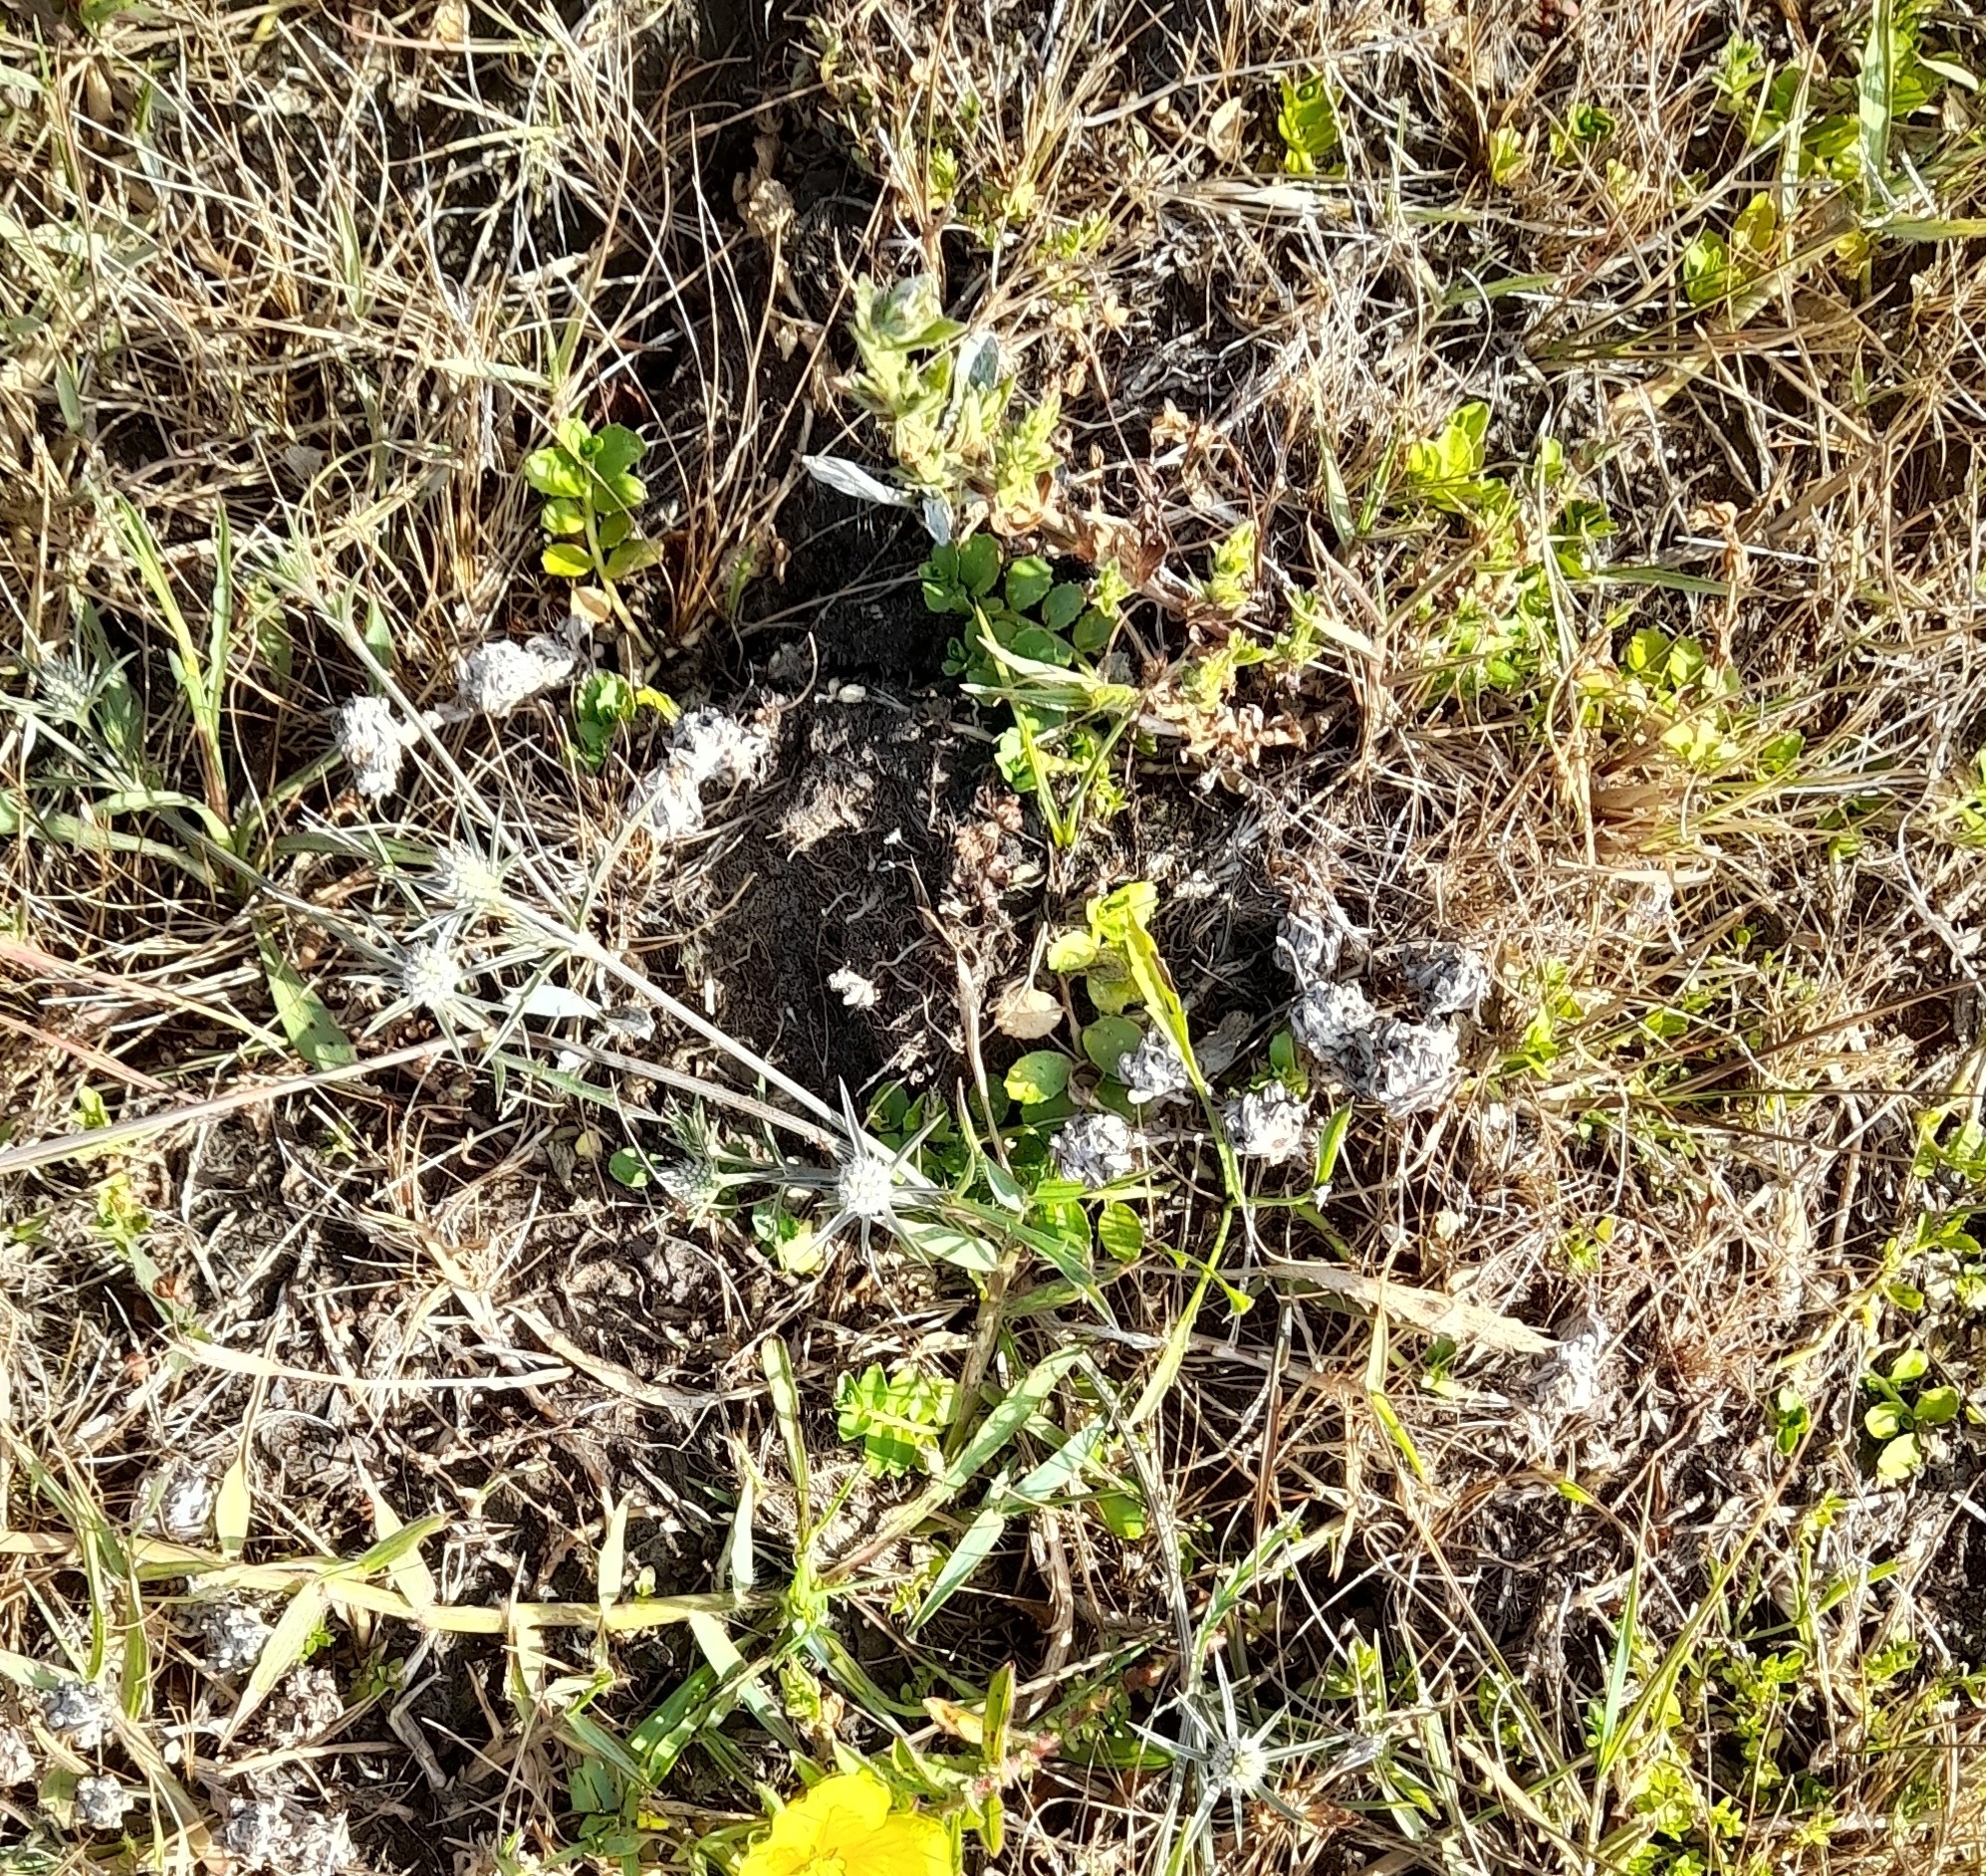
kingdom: Plantae
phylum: Tracheophyta
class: Magnoliopsida
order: Apiales
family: Apiaceae
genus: Eryngium
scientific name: Eryngium echinatum
